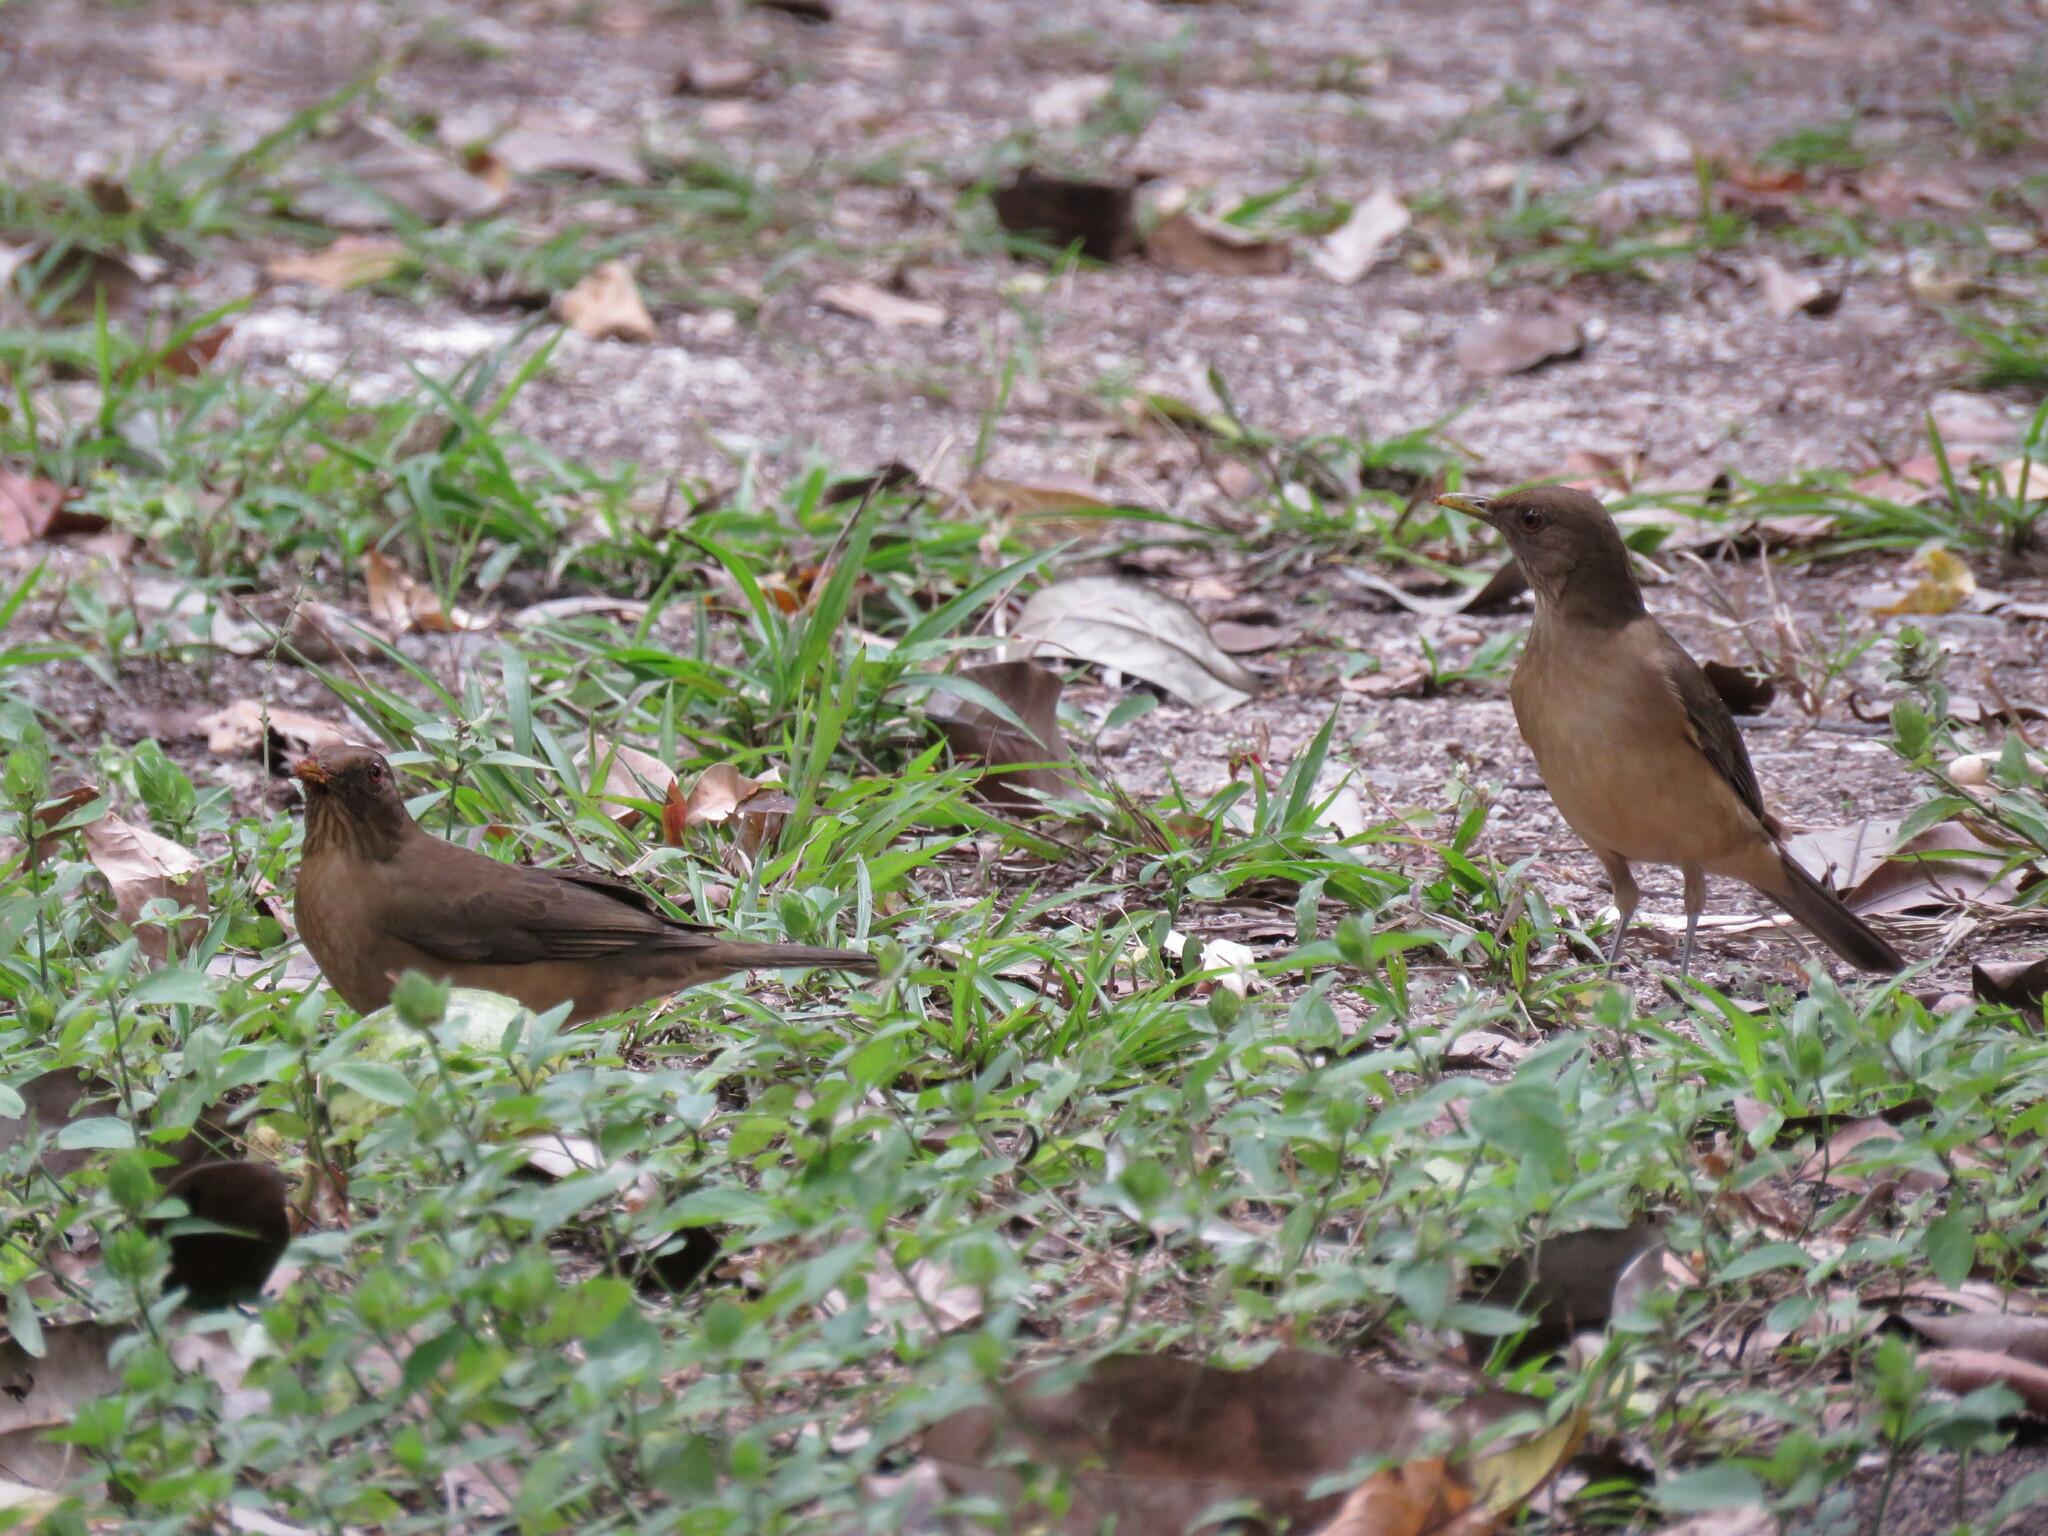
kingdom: Animalia
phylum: Chordata
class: Aves
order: Passeriformes
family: Turdidae
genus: Turdus
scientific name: Turdus grayi
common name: Clay-colored thrush
